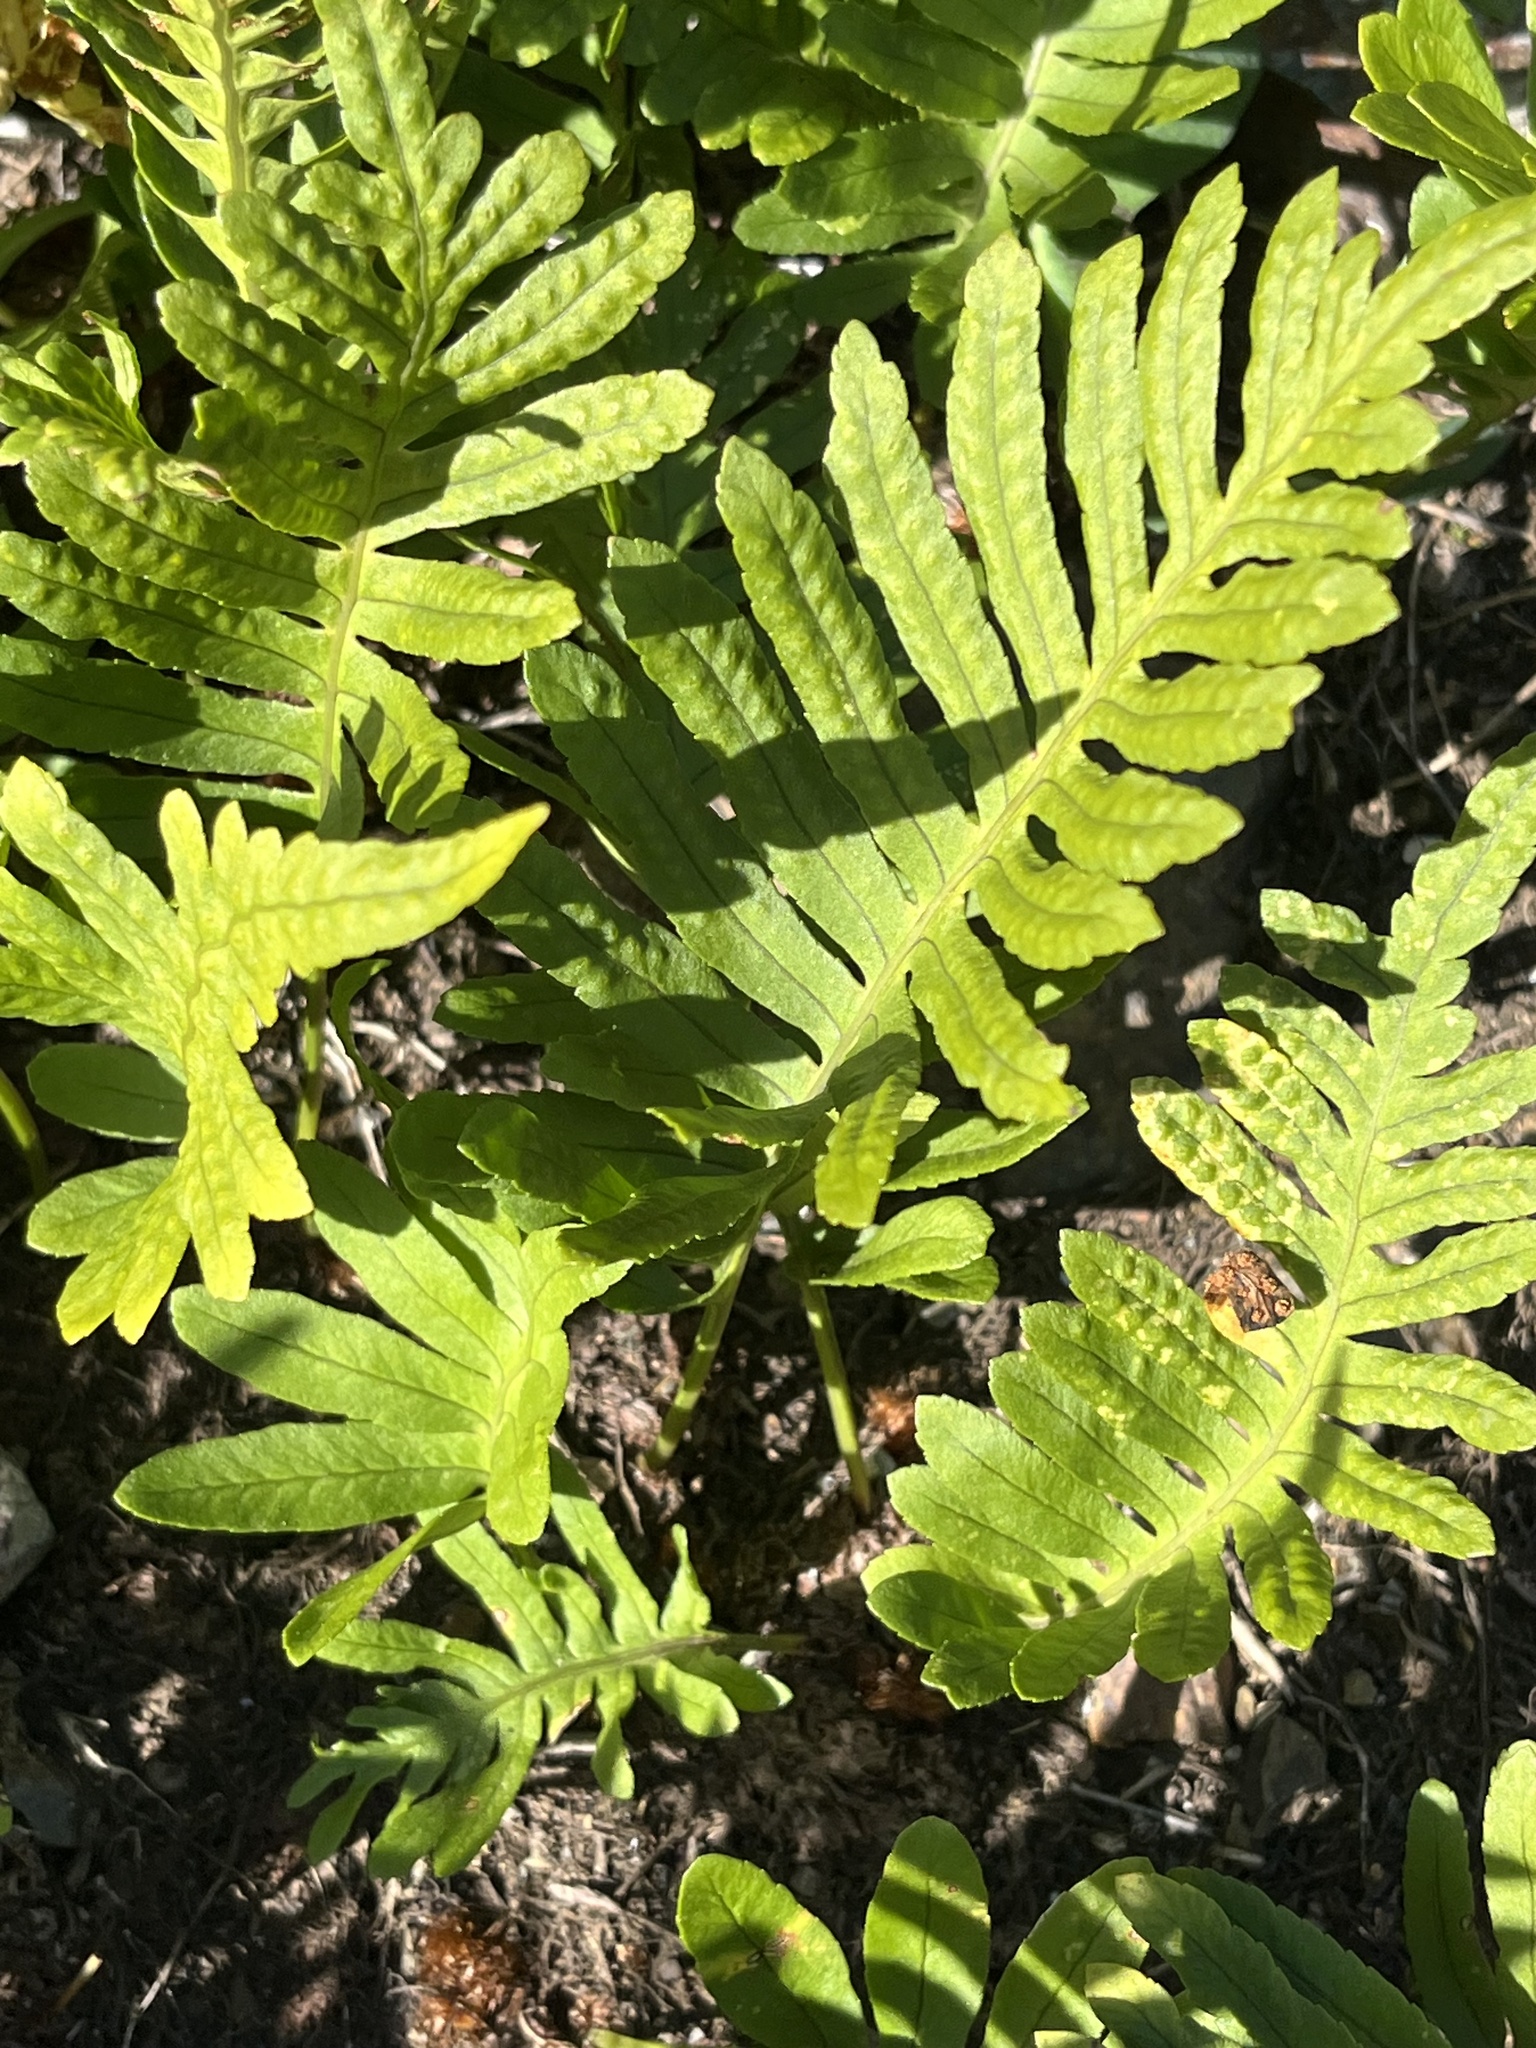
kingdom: Plantae
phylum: Tracheophyta
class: Polypodiopsida
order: Polypodiales
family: Polypodiaceae
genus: Polypodium
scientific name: Polypodium cambricum
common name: Southern polypody
